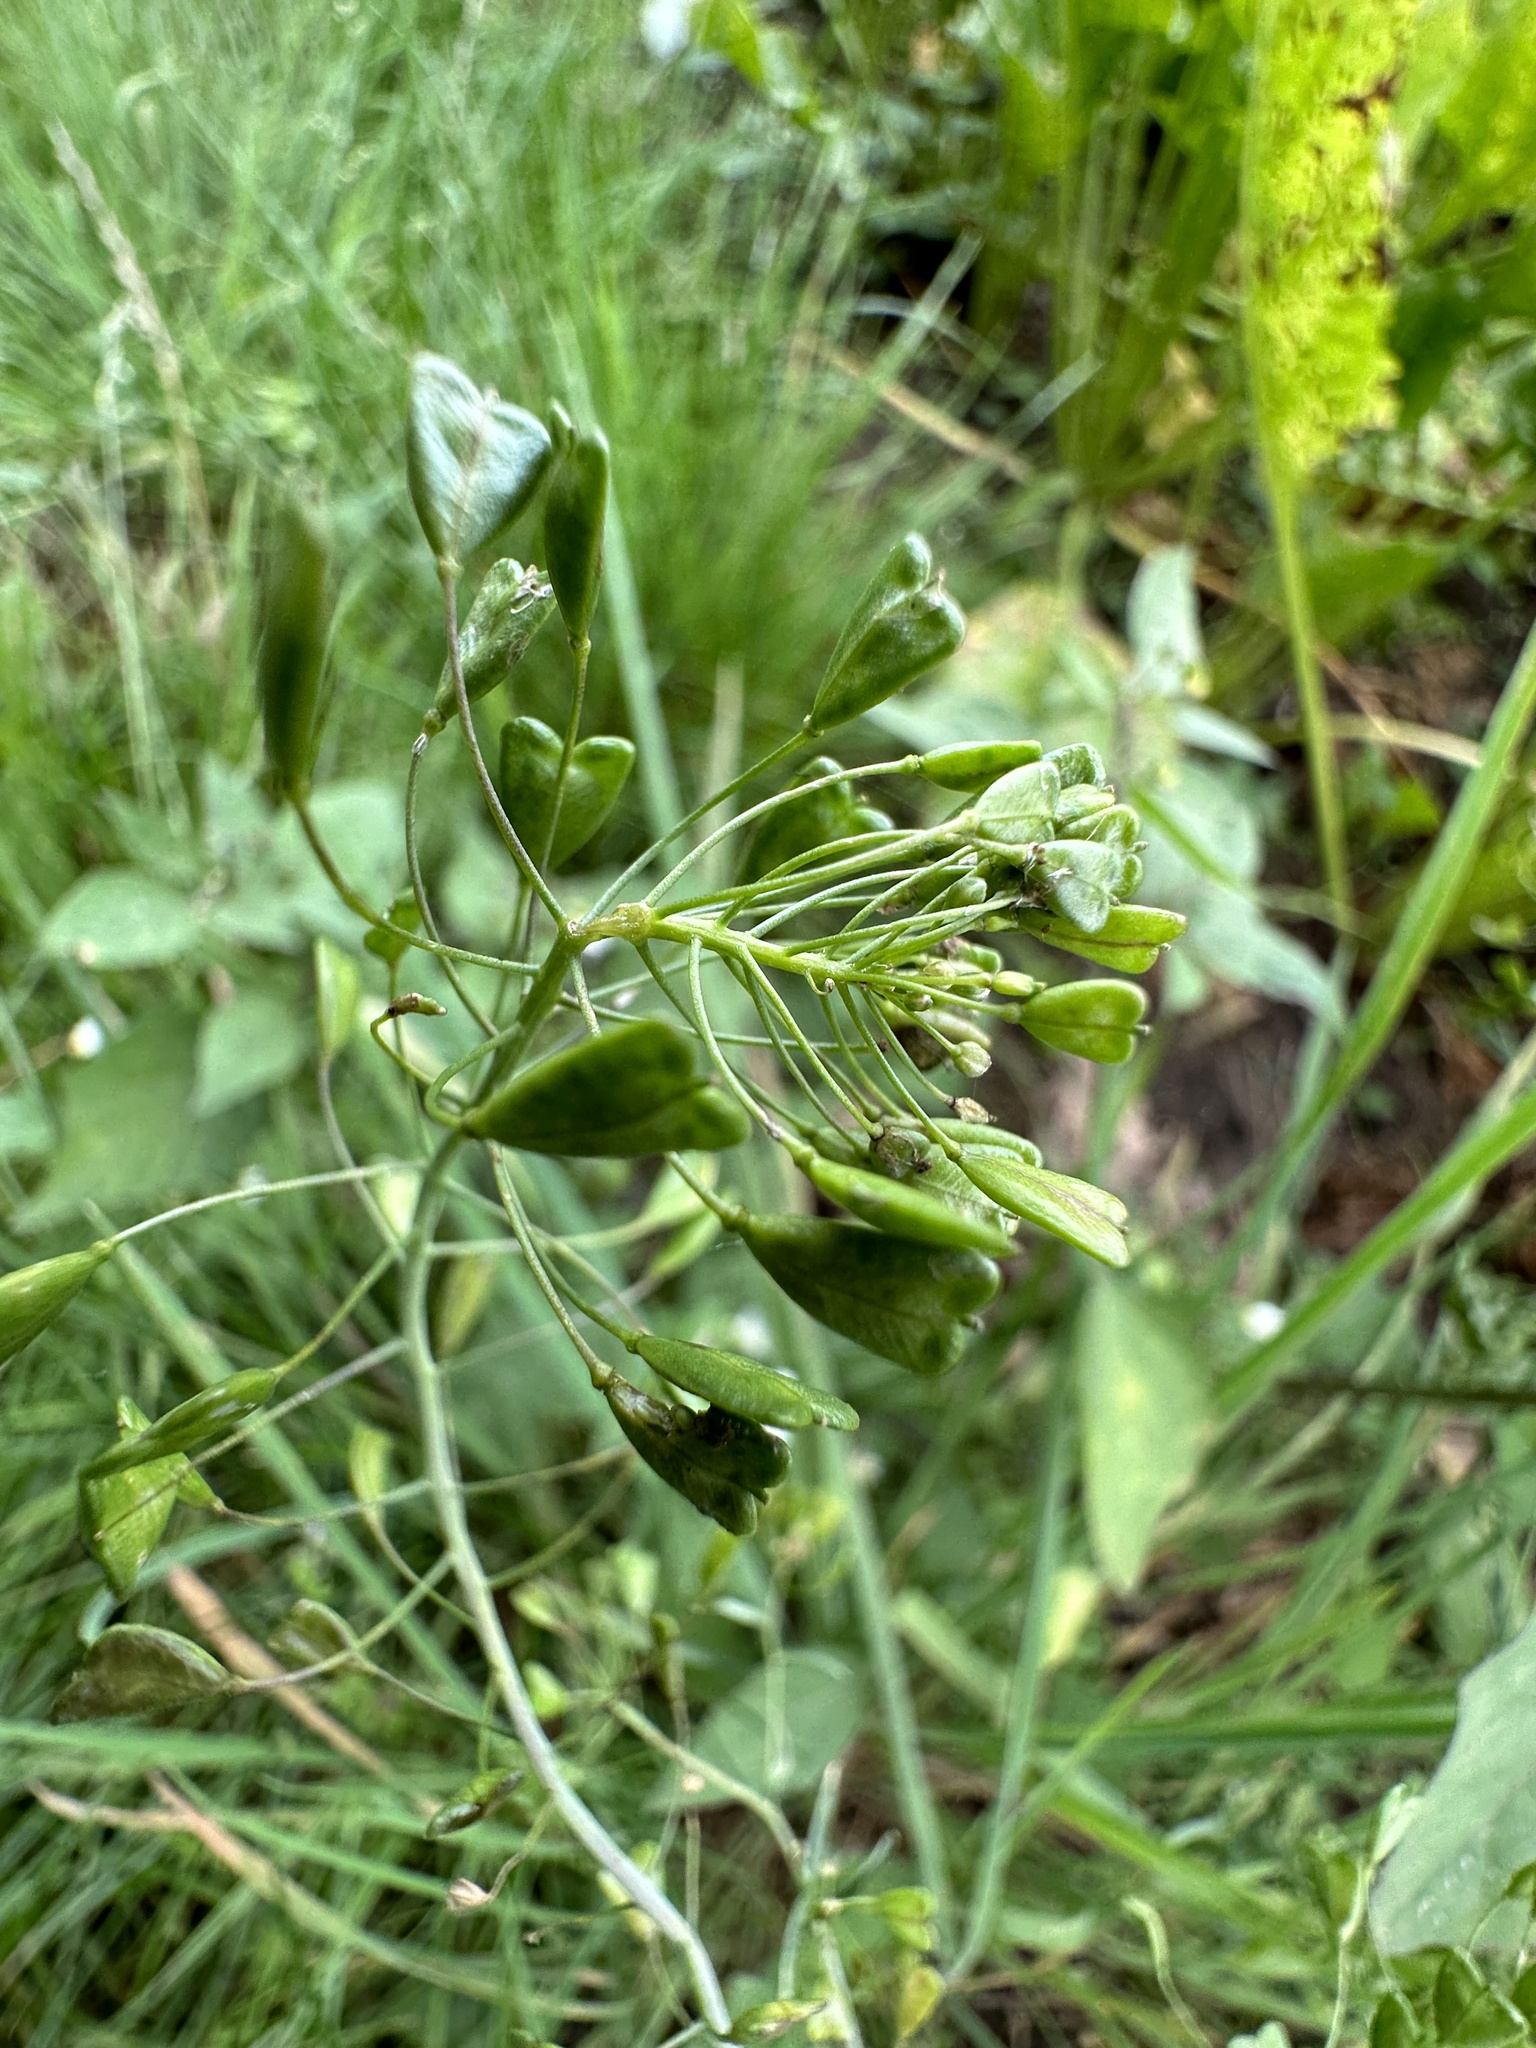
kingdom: Plantae
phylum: Tracheophyta
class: Magnoliopsida
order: Brassicales
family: Brassicaceae
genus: Capsella
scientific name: Capsella bursa-pastoris
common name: Shepherd's purse
